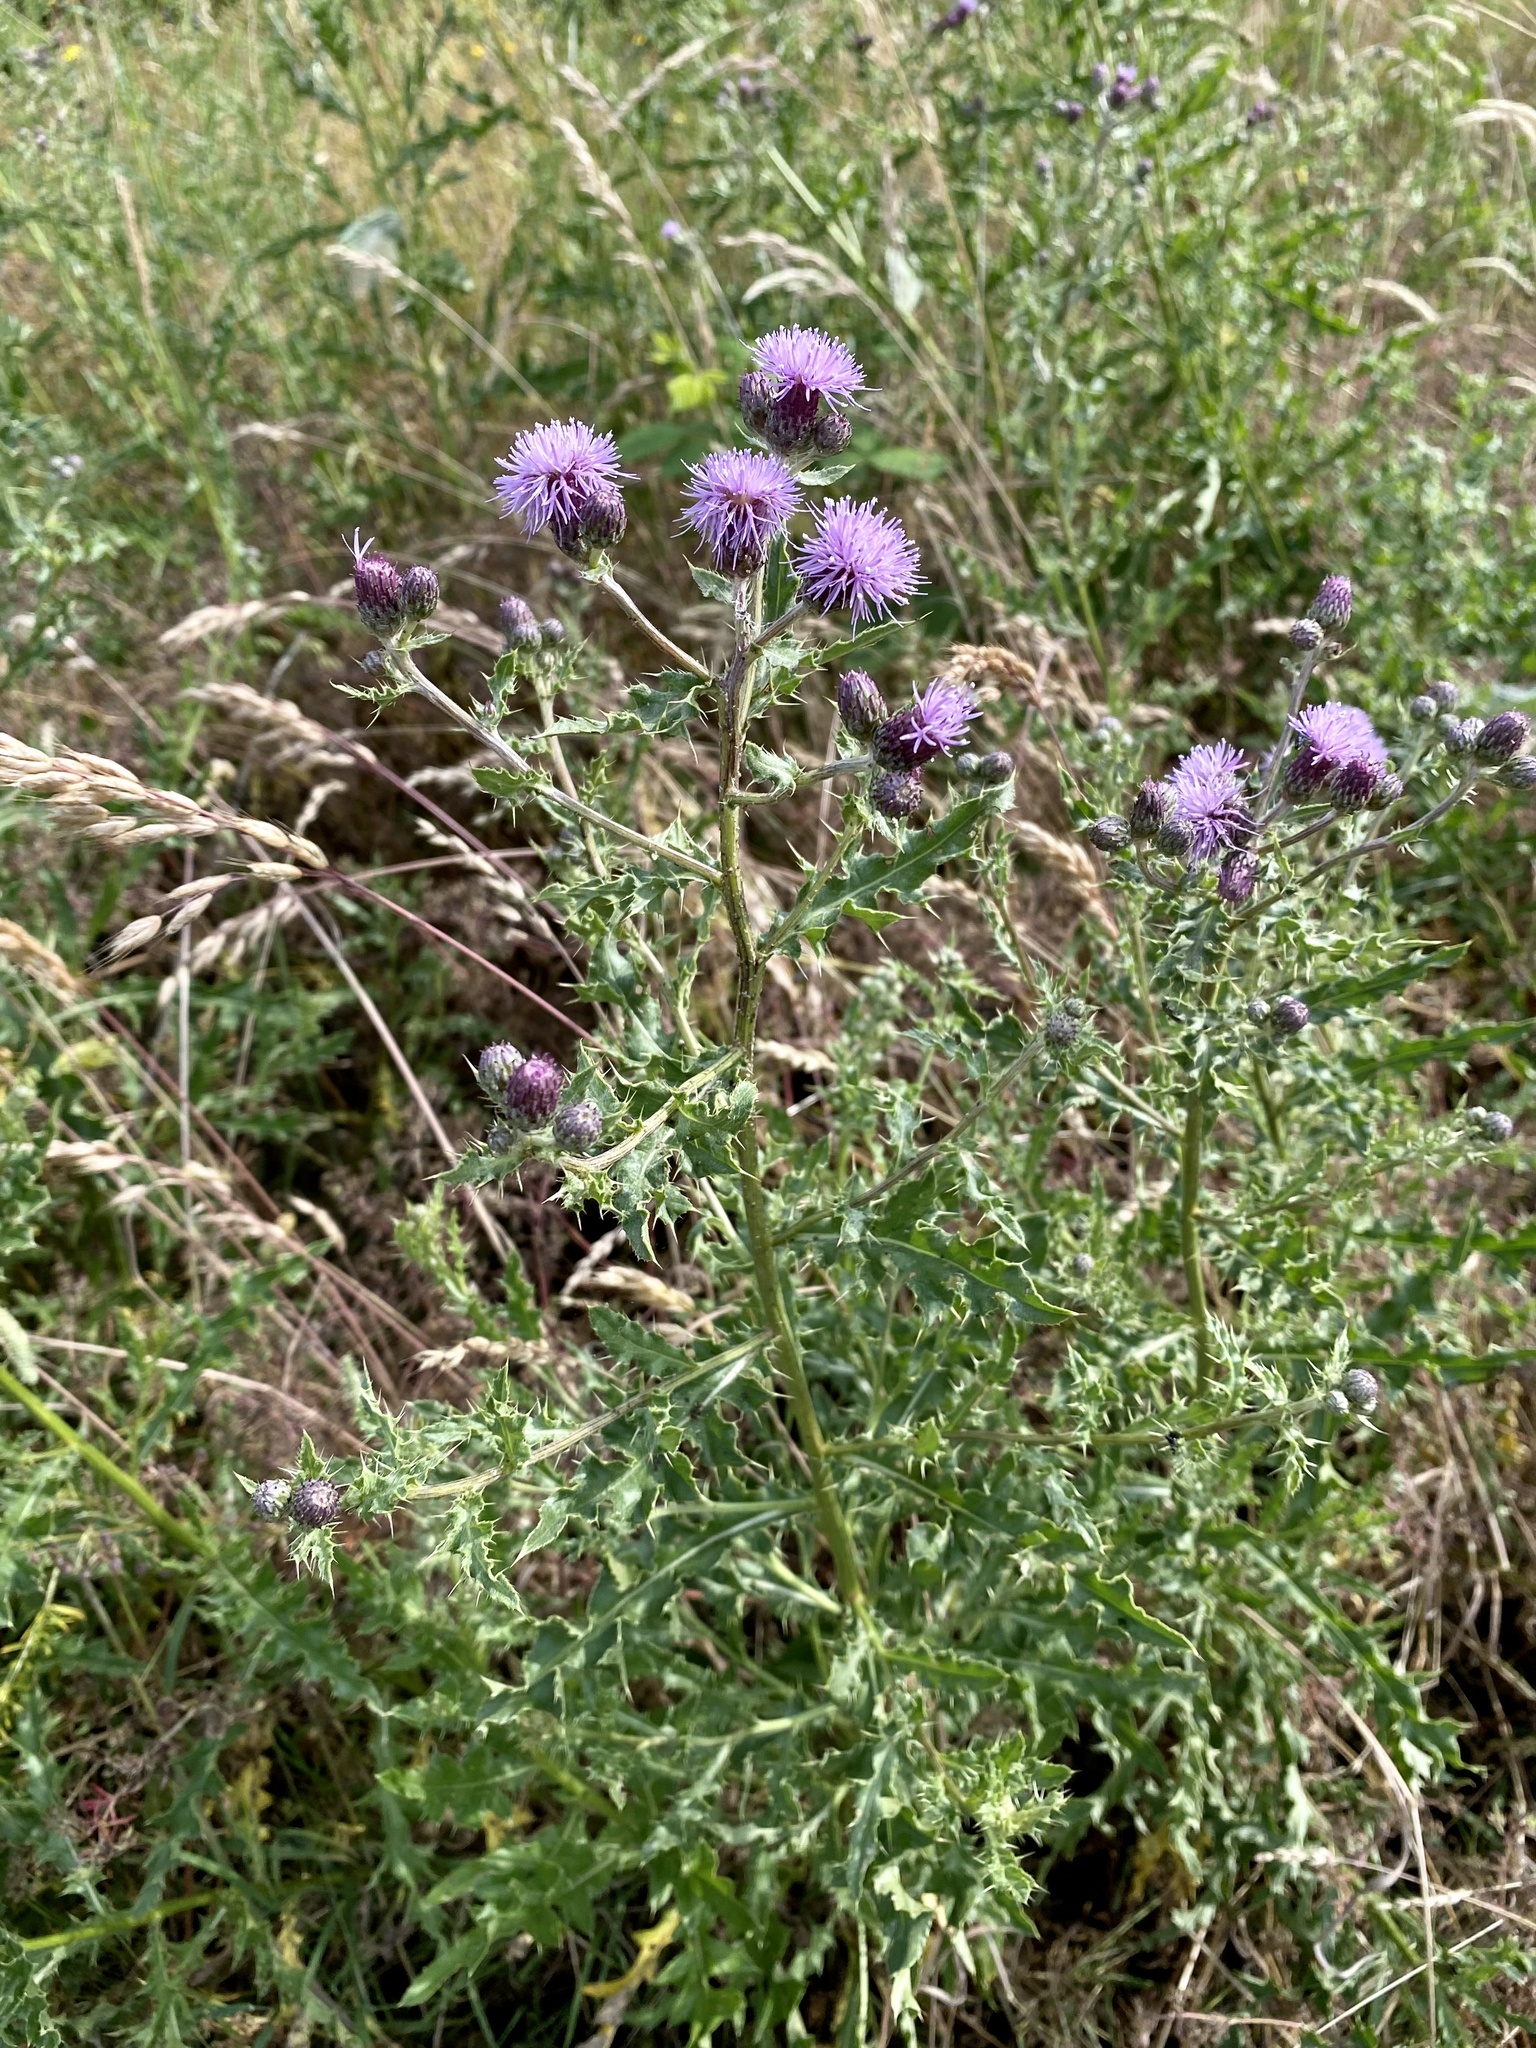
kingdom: Plantae
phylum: Tracheophyta
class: Magnoliopsida
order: Asterales
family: Asteraceae
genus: Cirsium
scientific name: Cirsium arvense
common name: Creeping thistle
